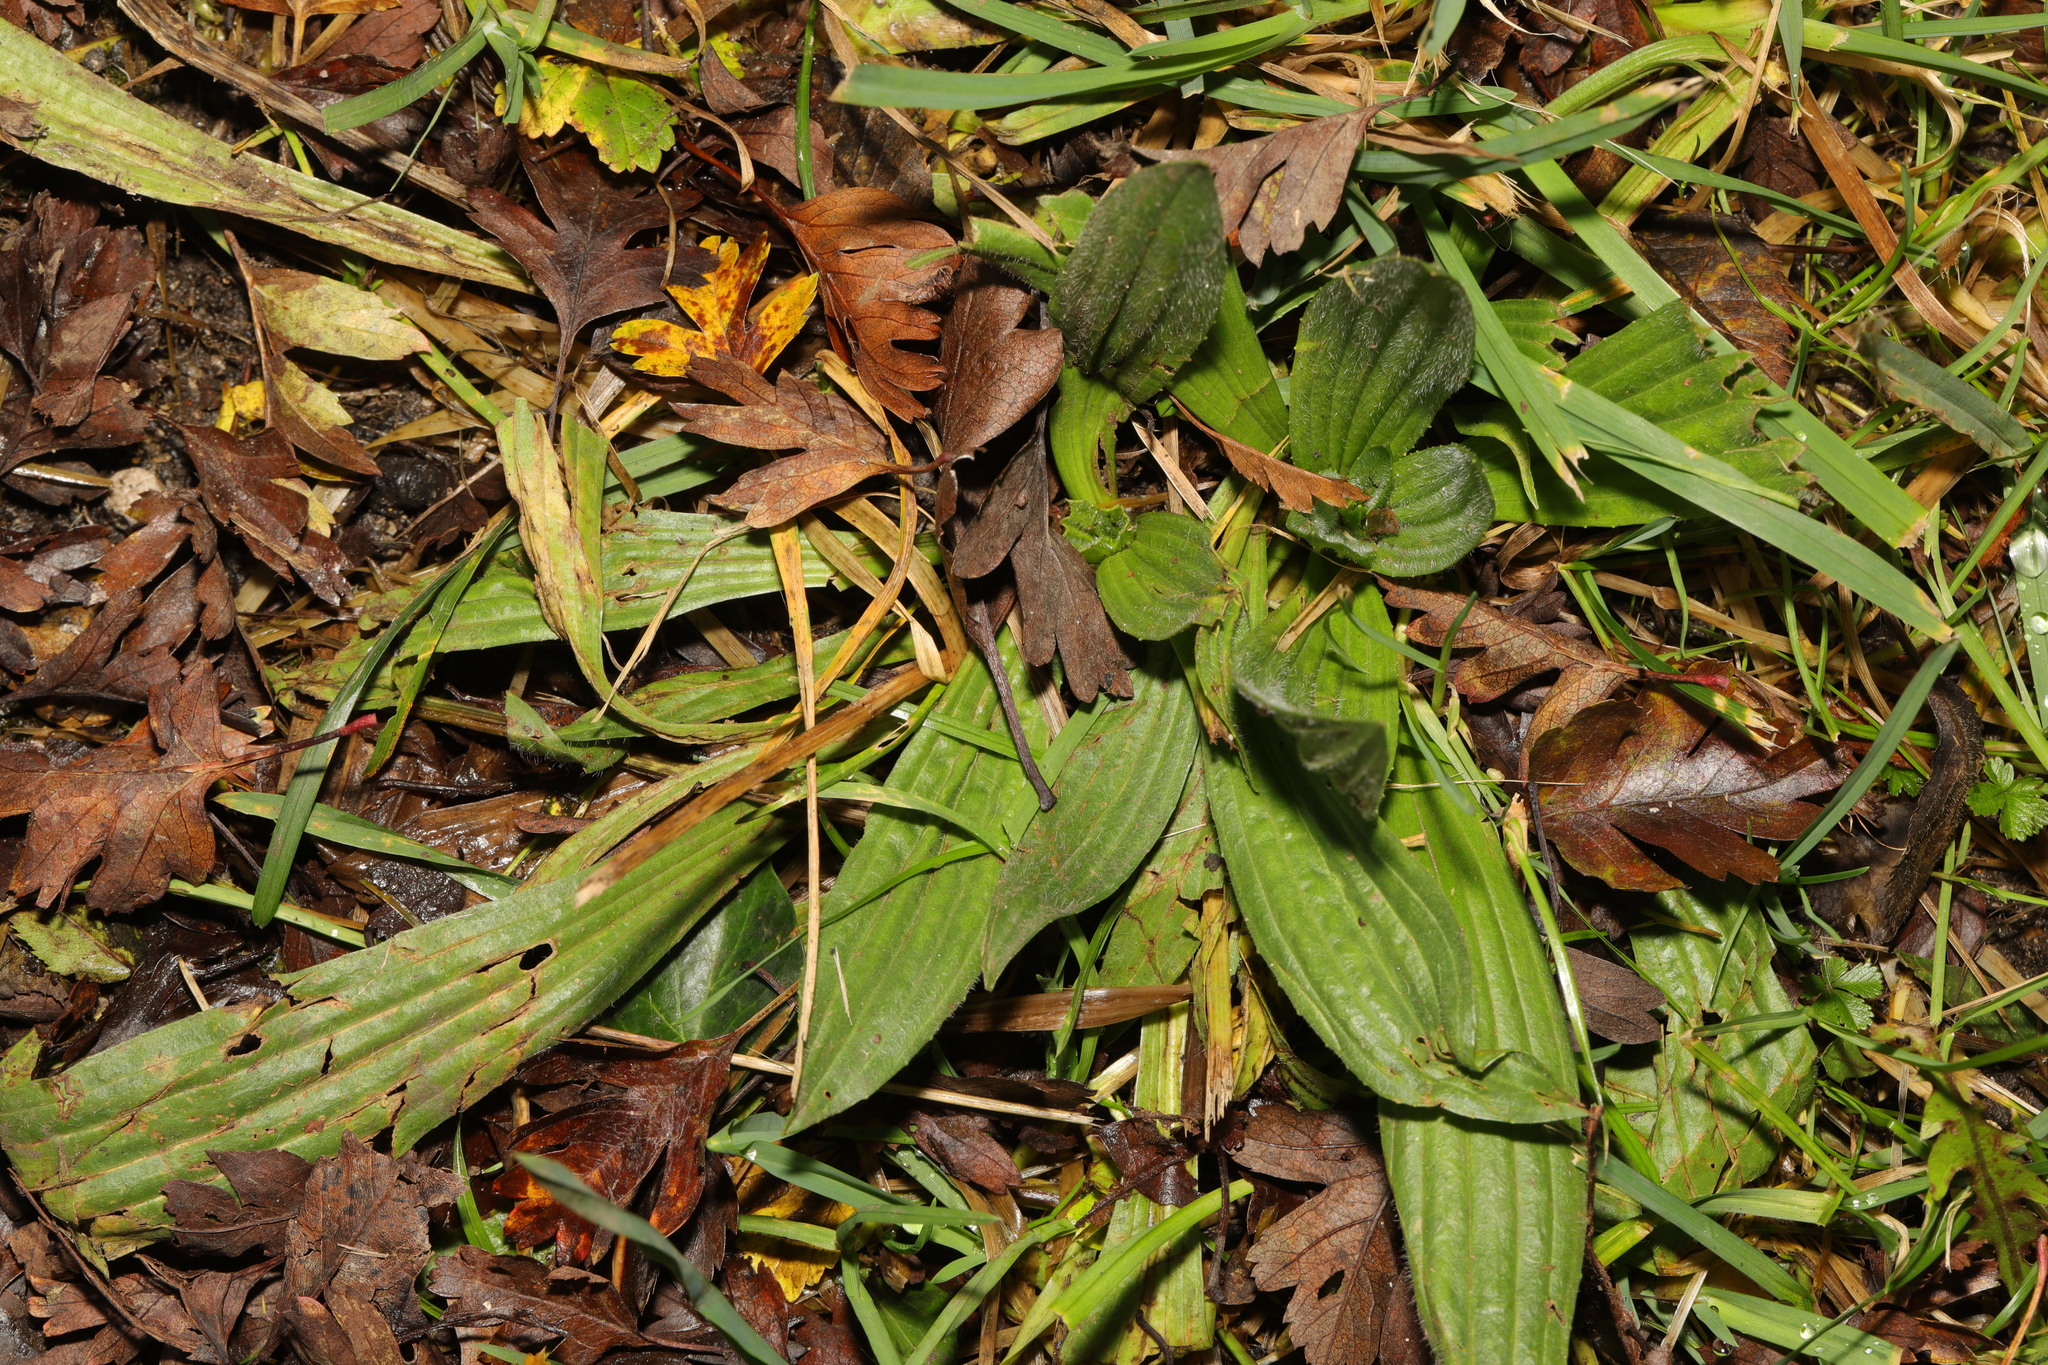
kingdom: Plantae
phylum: Tracheophyta
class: Magnoliopsida
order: Lamiales
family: Plantaginaceae
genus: Plantago
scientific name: Plantago lanceolata
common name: Ribwort plantain
